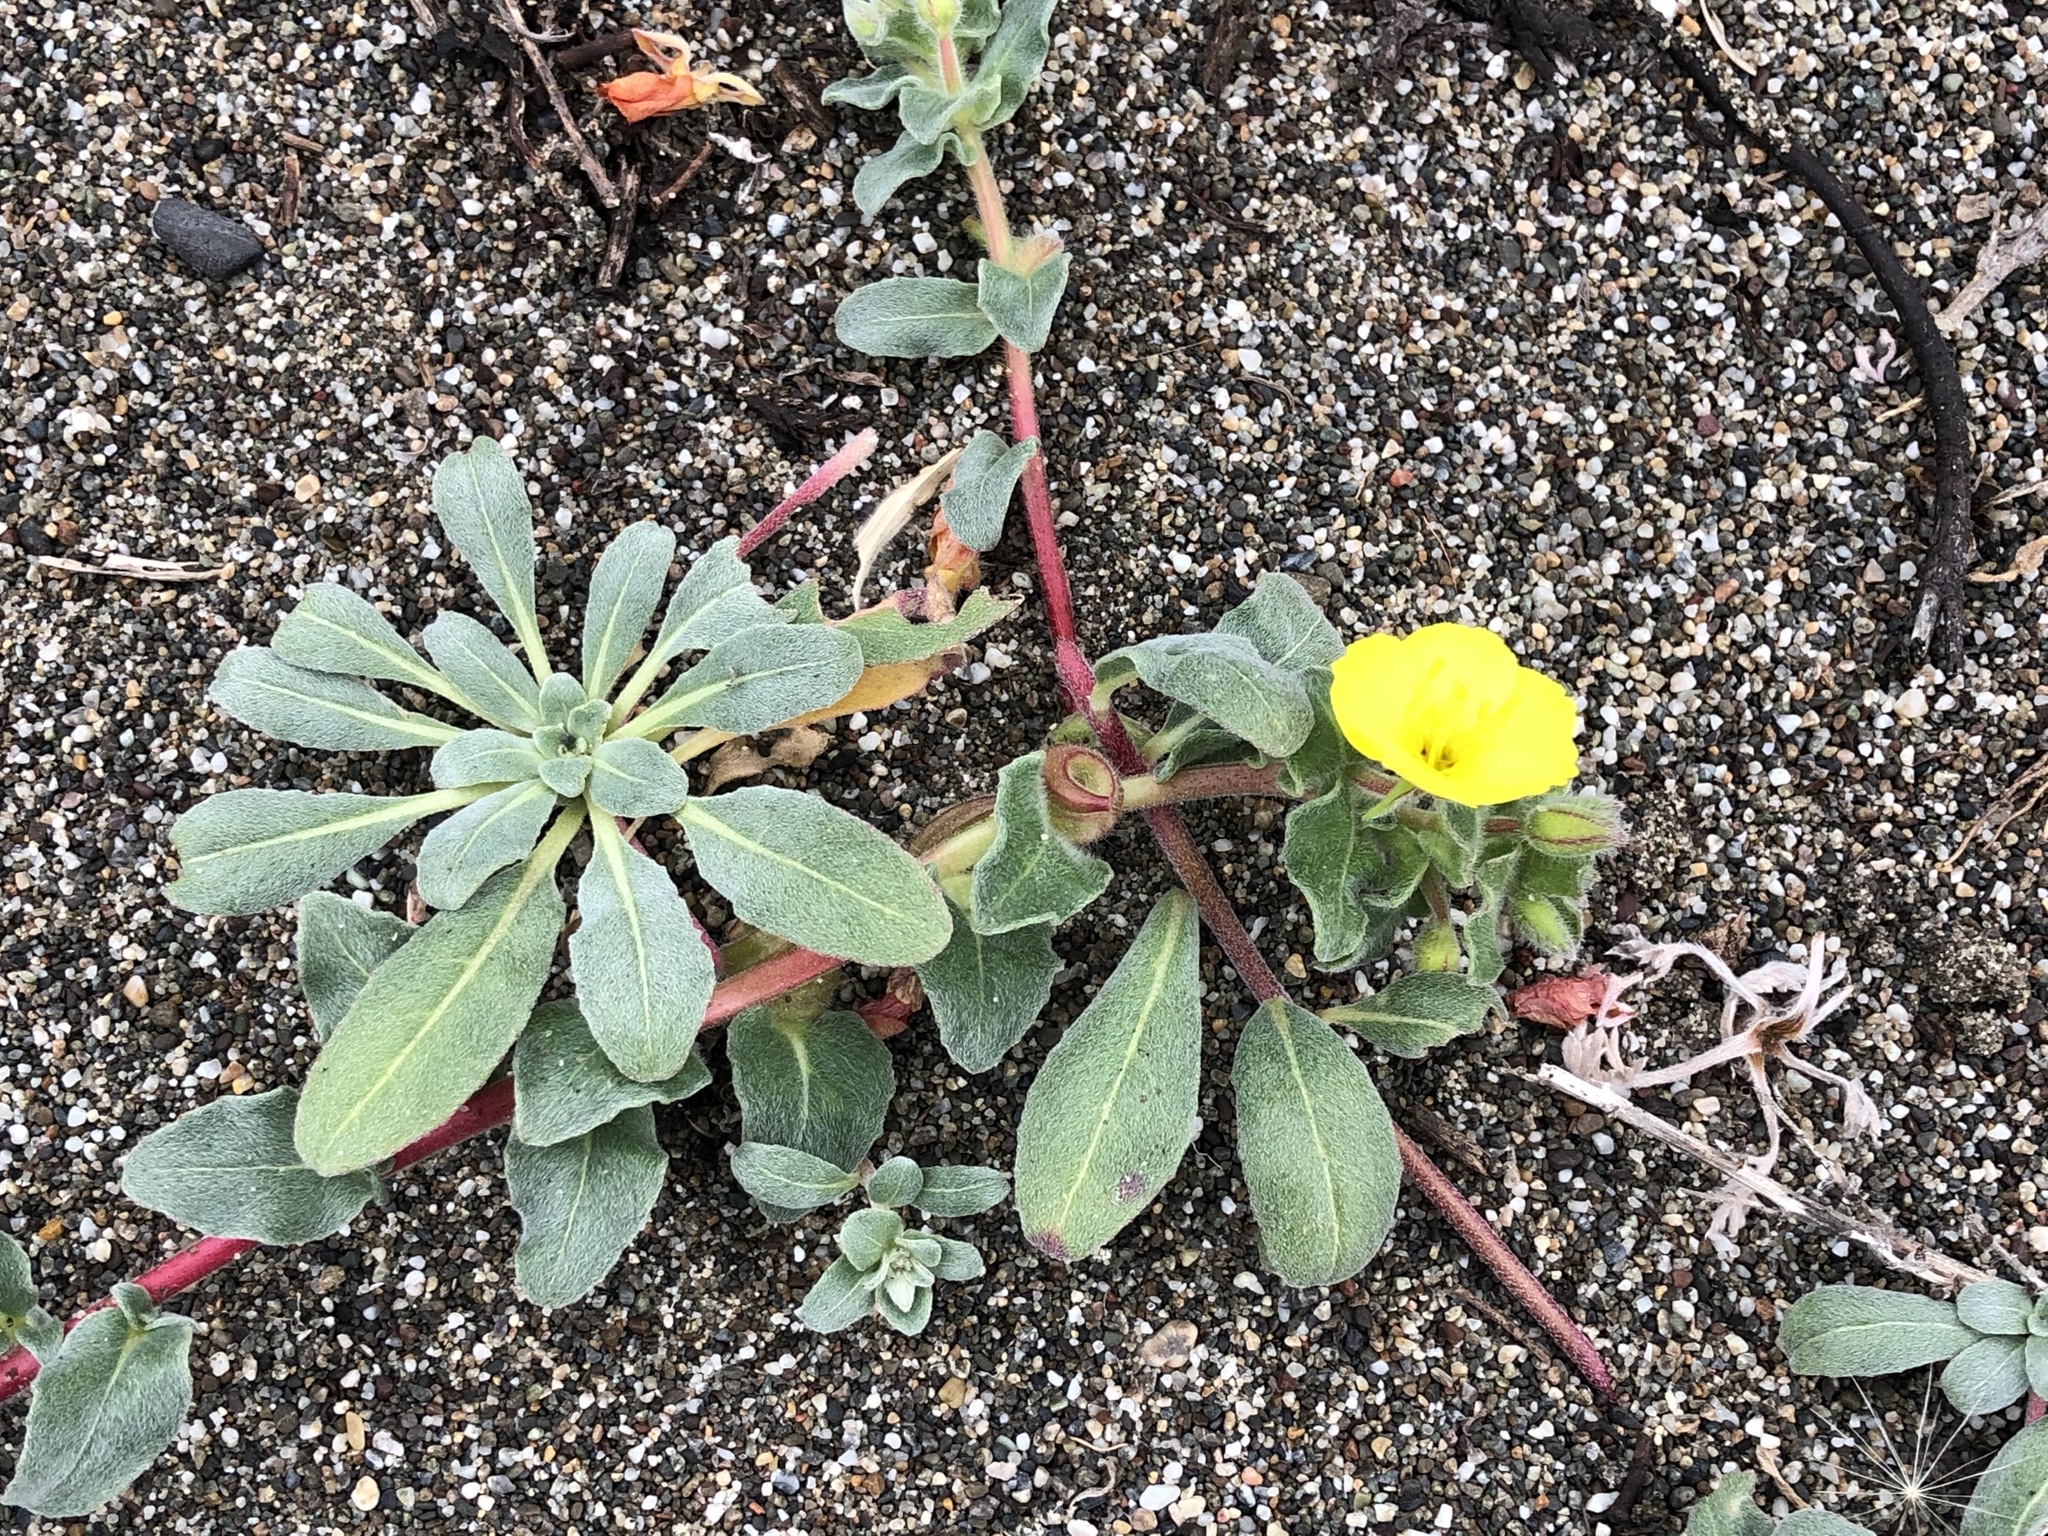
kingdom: Plantae
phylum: Tracheophyta
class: Magnoliopsida
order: Myrtales
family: Onagraceae
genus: Camissoniopsis
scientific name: Camissoniopsis cheiranthifolia
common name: Beach suncup
